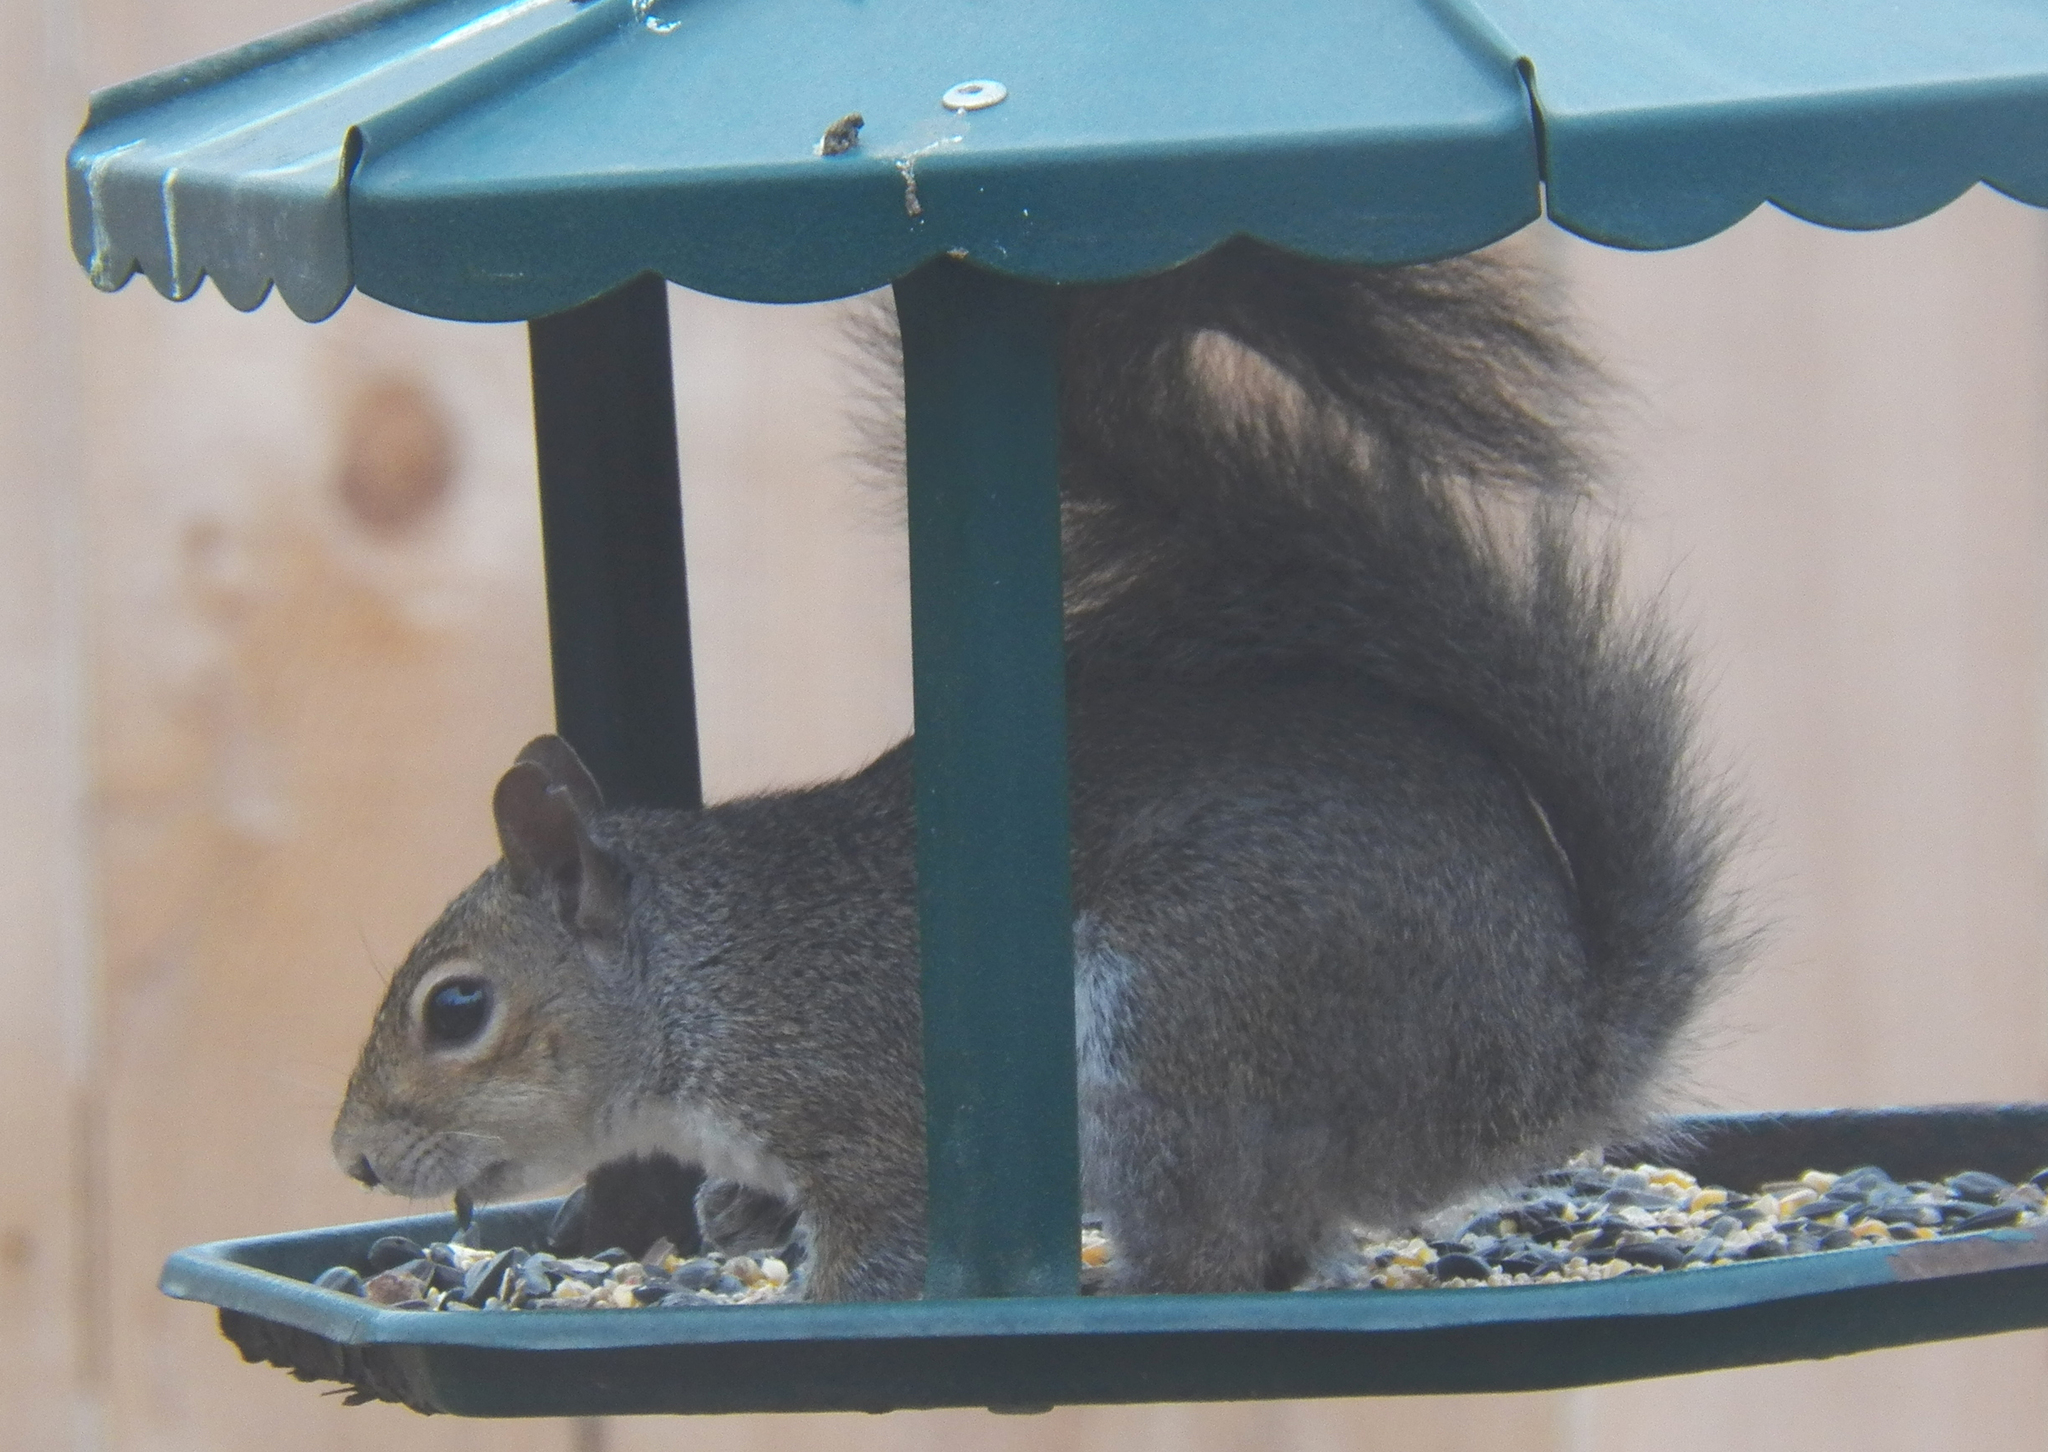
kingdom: Animalia
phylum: Chordata
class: Mammalia
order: Rodentia
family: Sciuridae
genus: Sciurus
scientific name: Sciurus carolinensis
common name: Eastern gray squirrel
